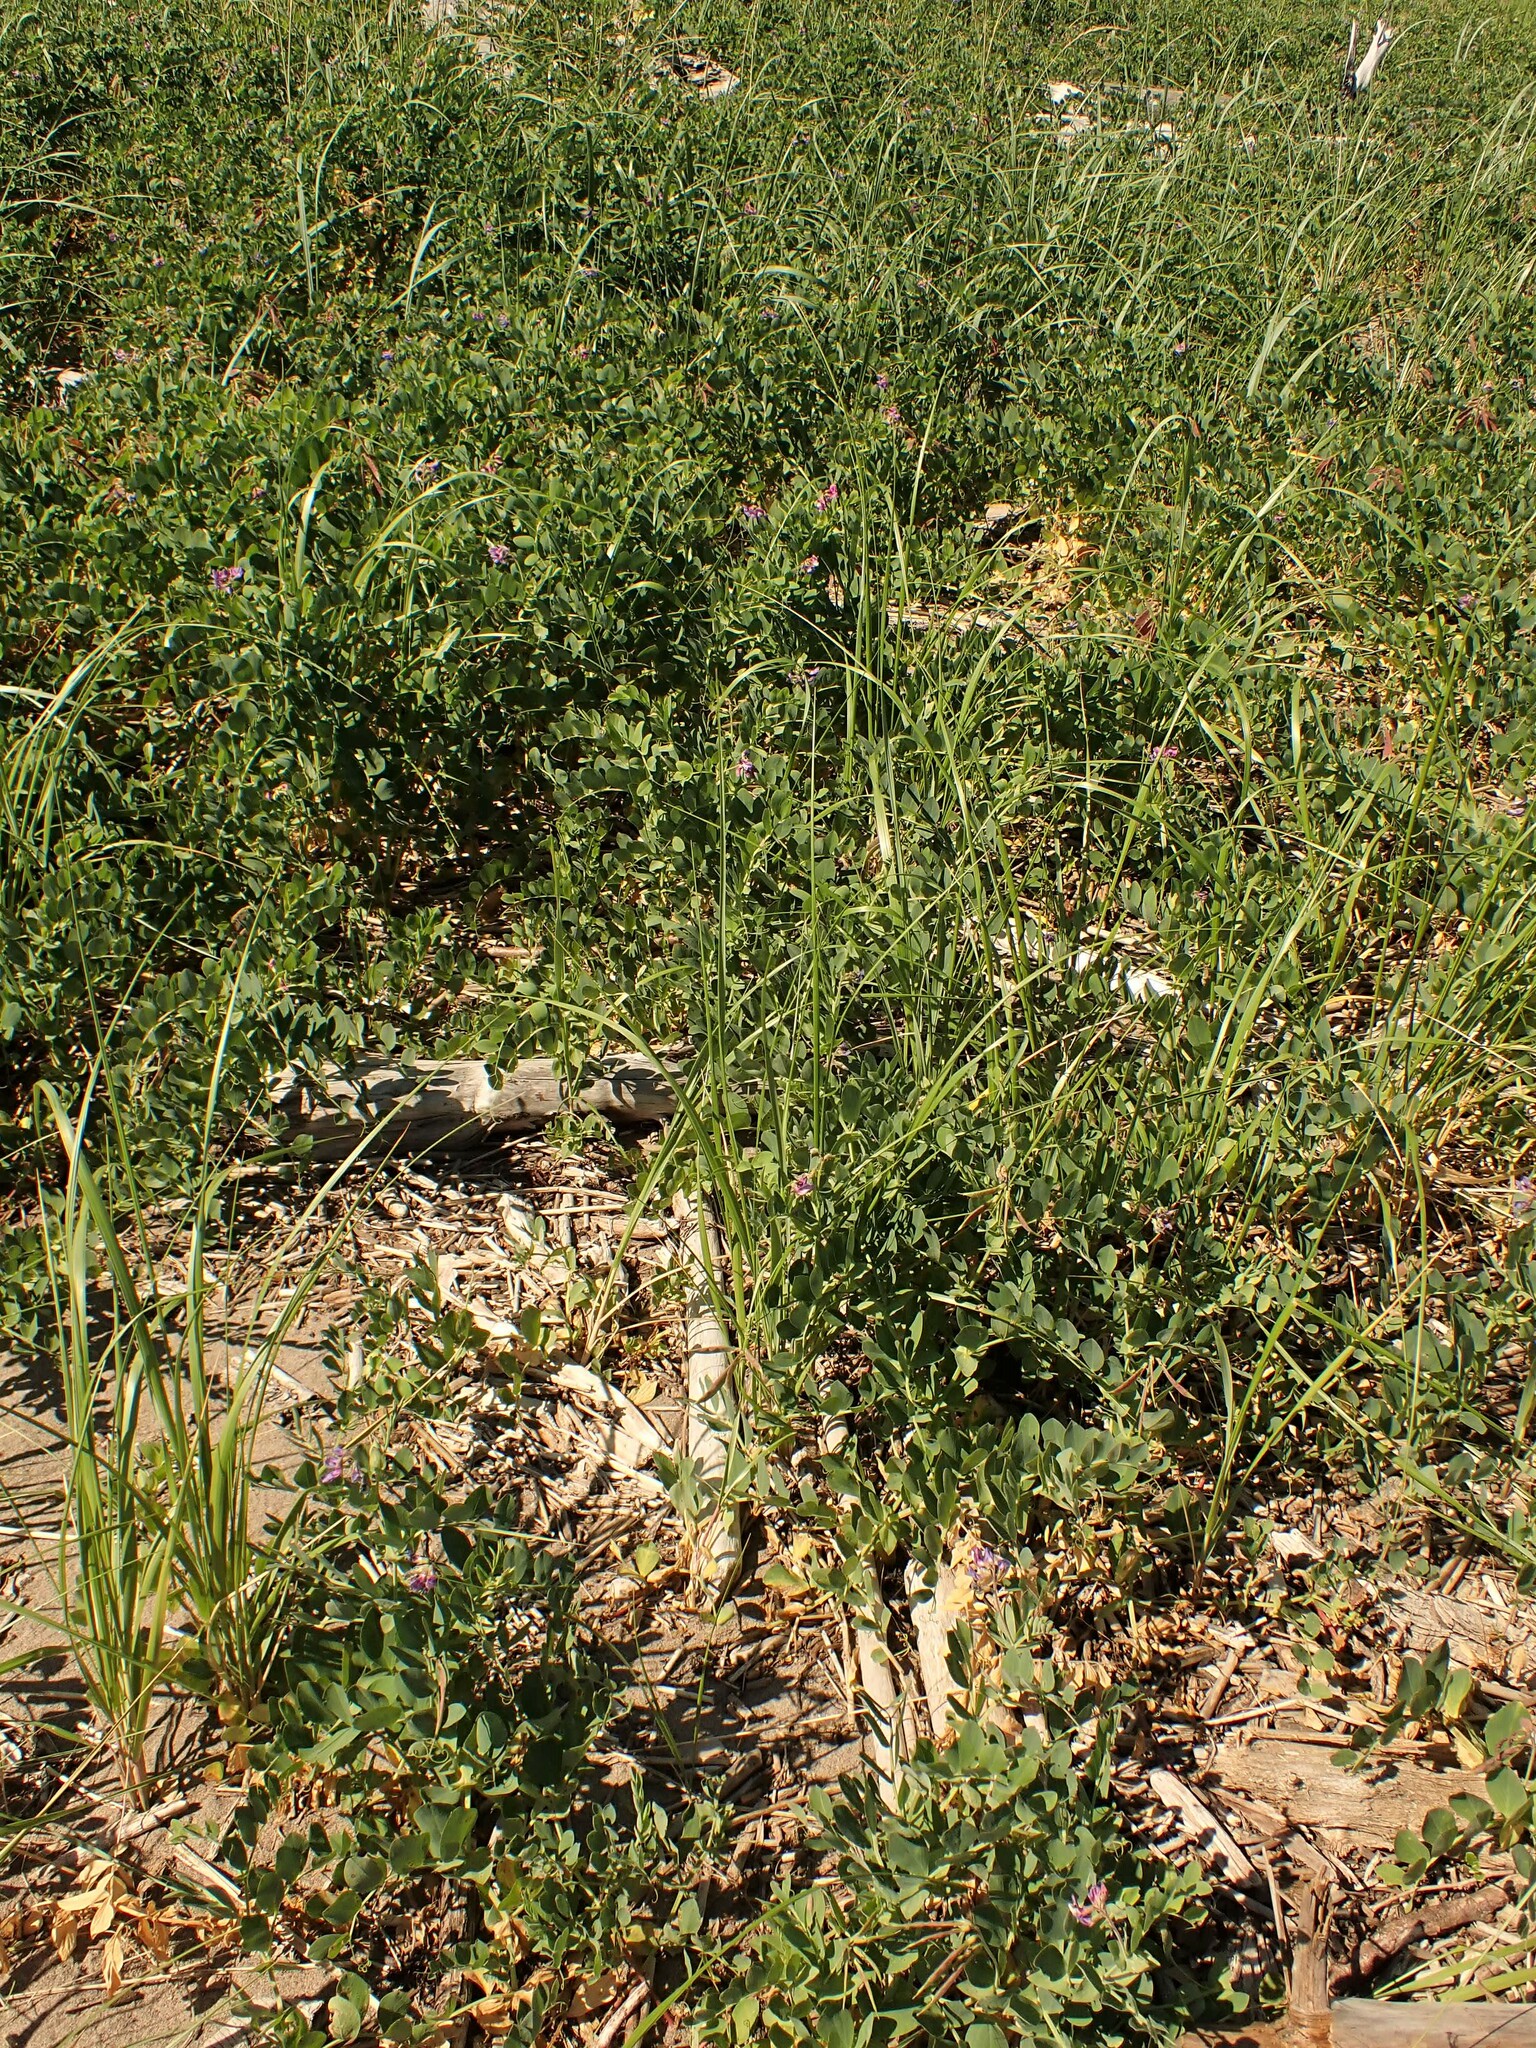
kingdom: Plantae
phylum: Tracheophyta
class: Magnoliopsida
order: Fabales
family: Fabaceae
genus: Lathyrus
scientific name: Lathyrus japonicus
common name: Sea pea
